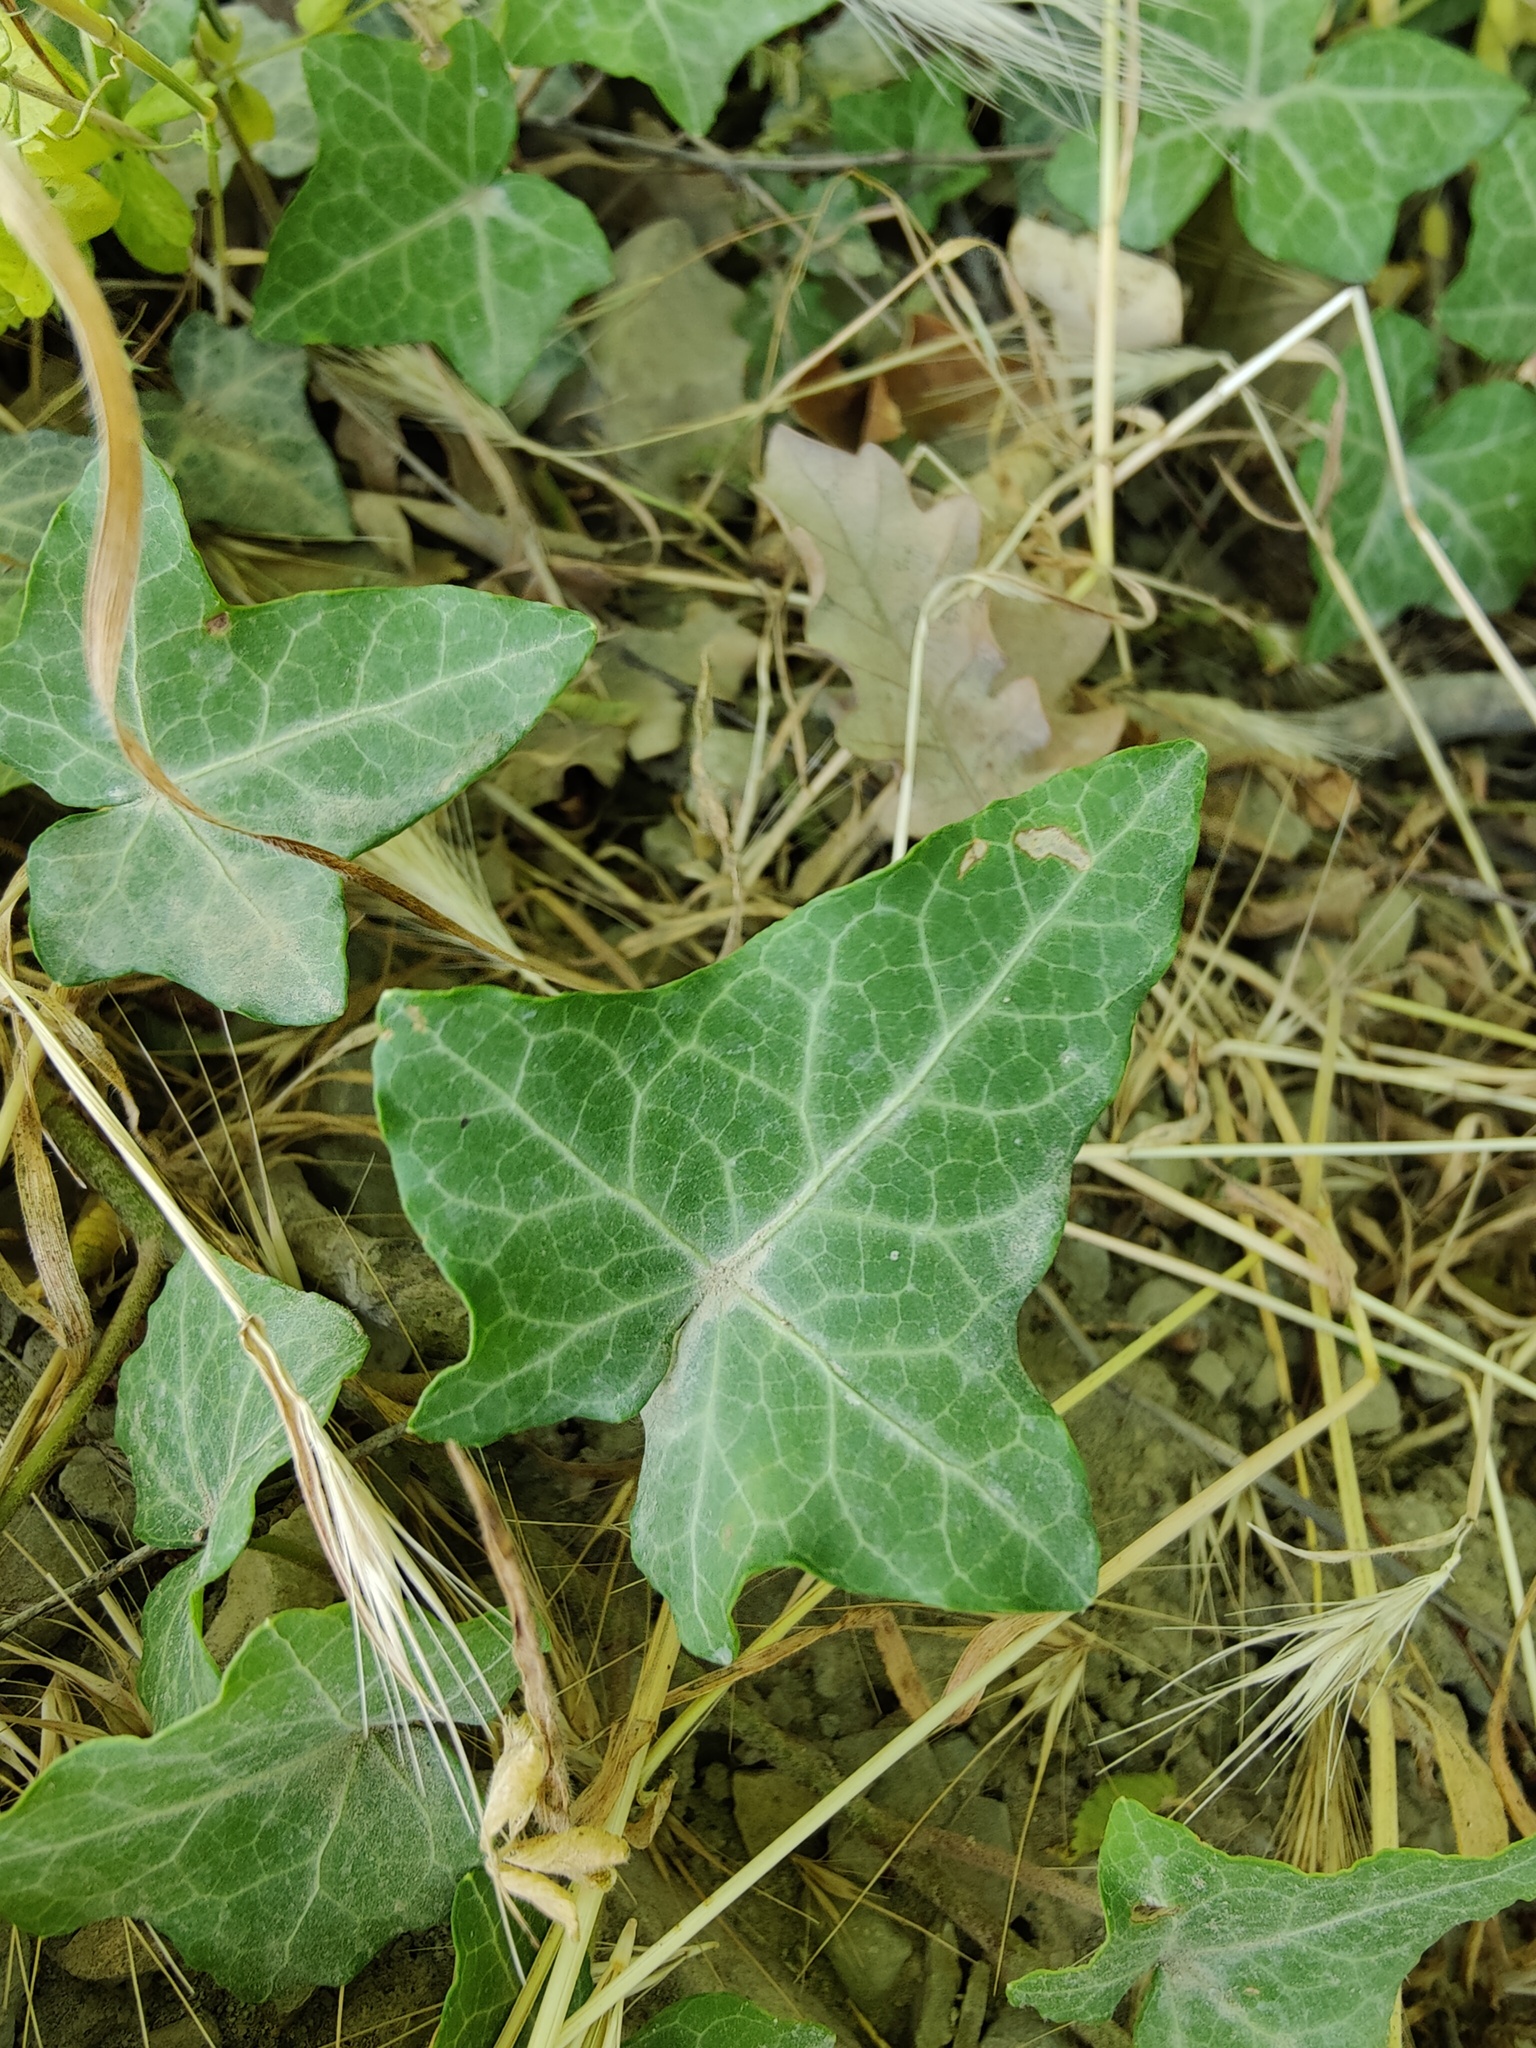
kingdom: Plantae
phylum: Tracheophyta
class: Magnoliopsida
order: Apiales
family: Araliaceae
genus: Hedera
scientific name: Hedera helix
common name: Ivy
